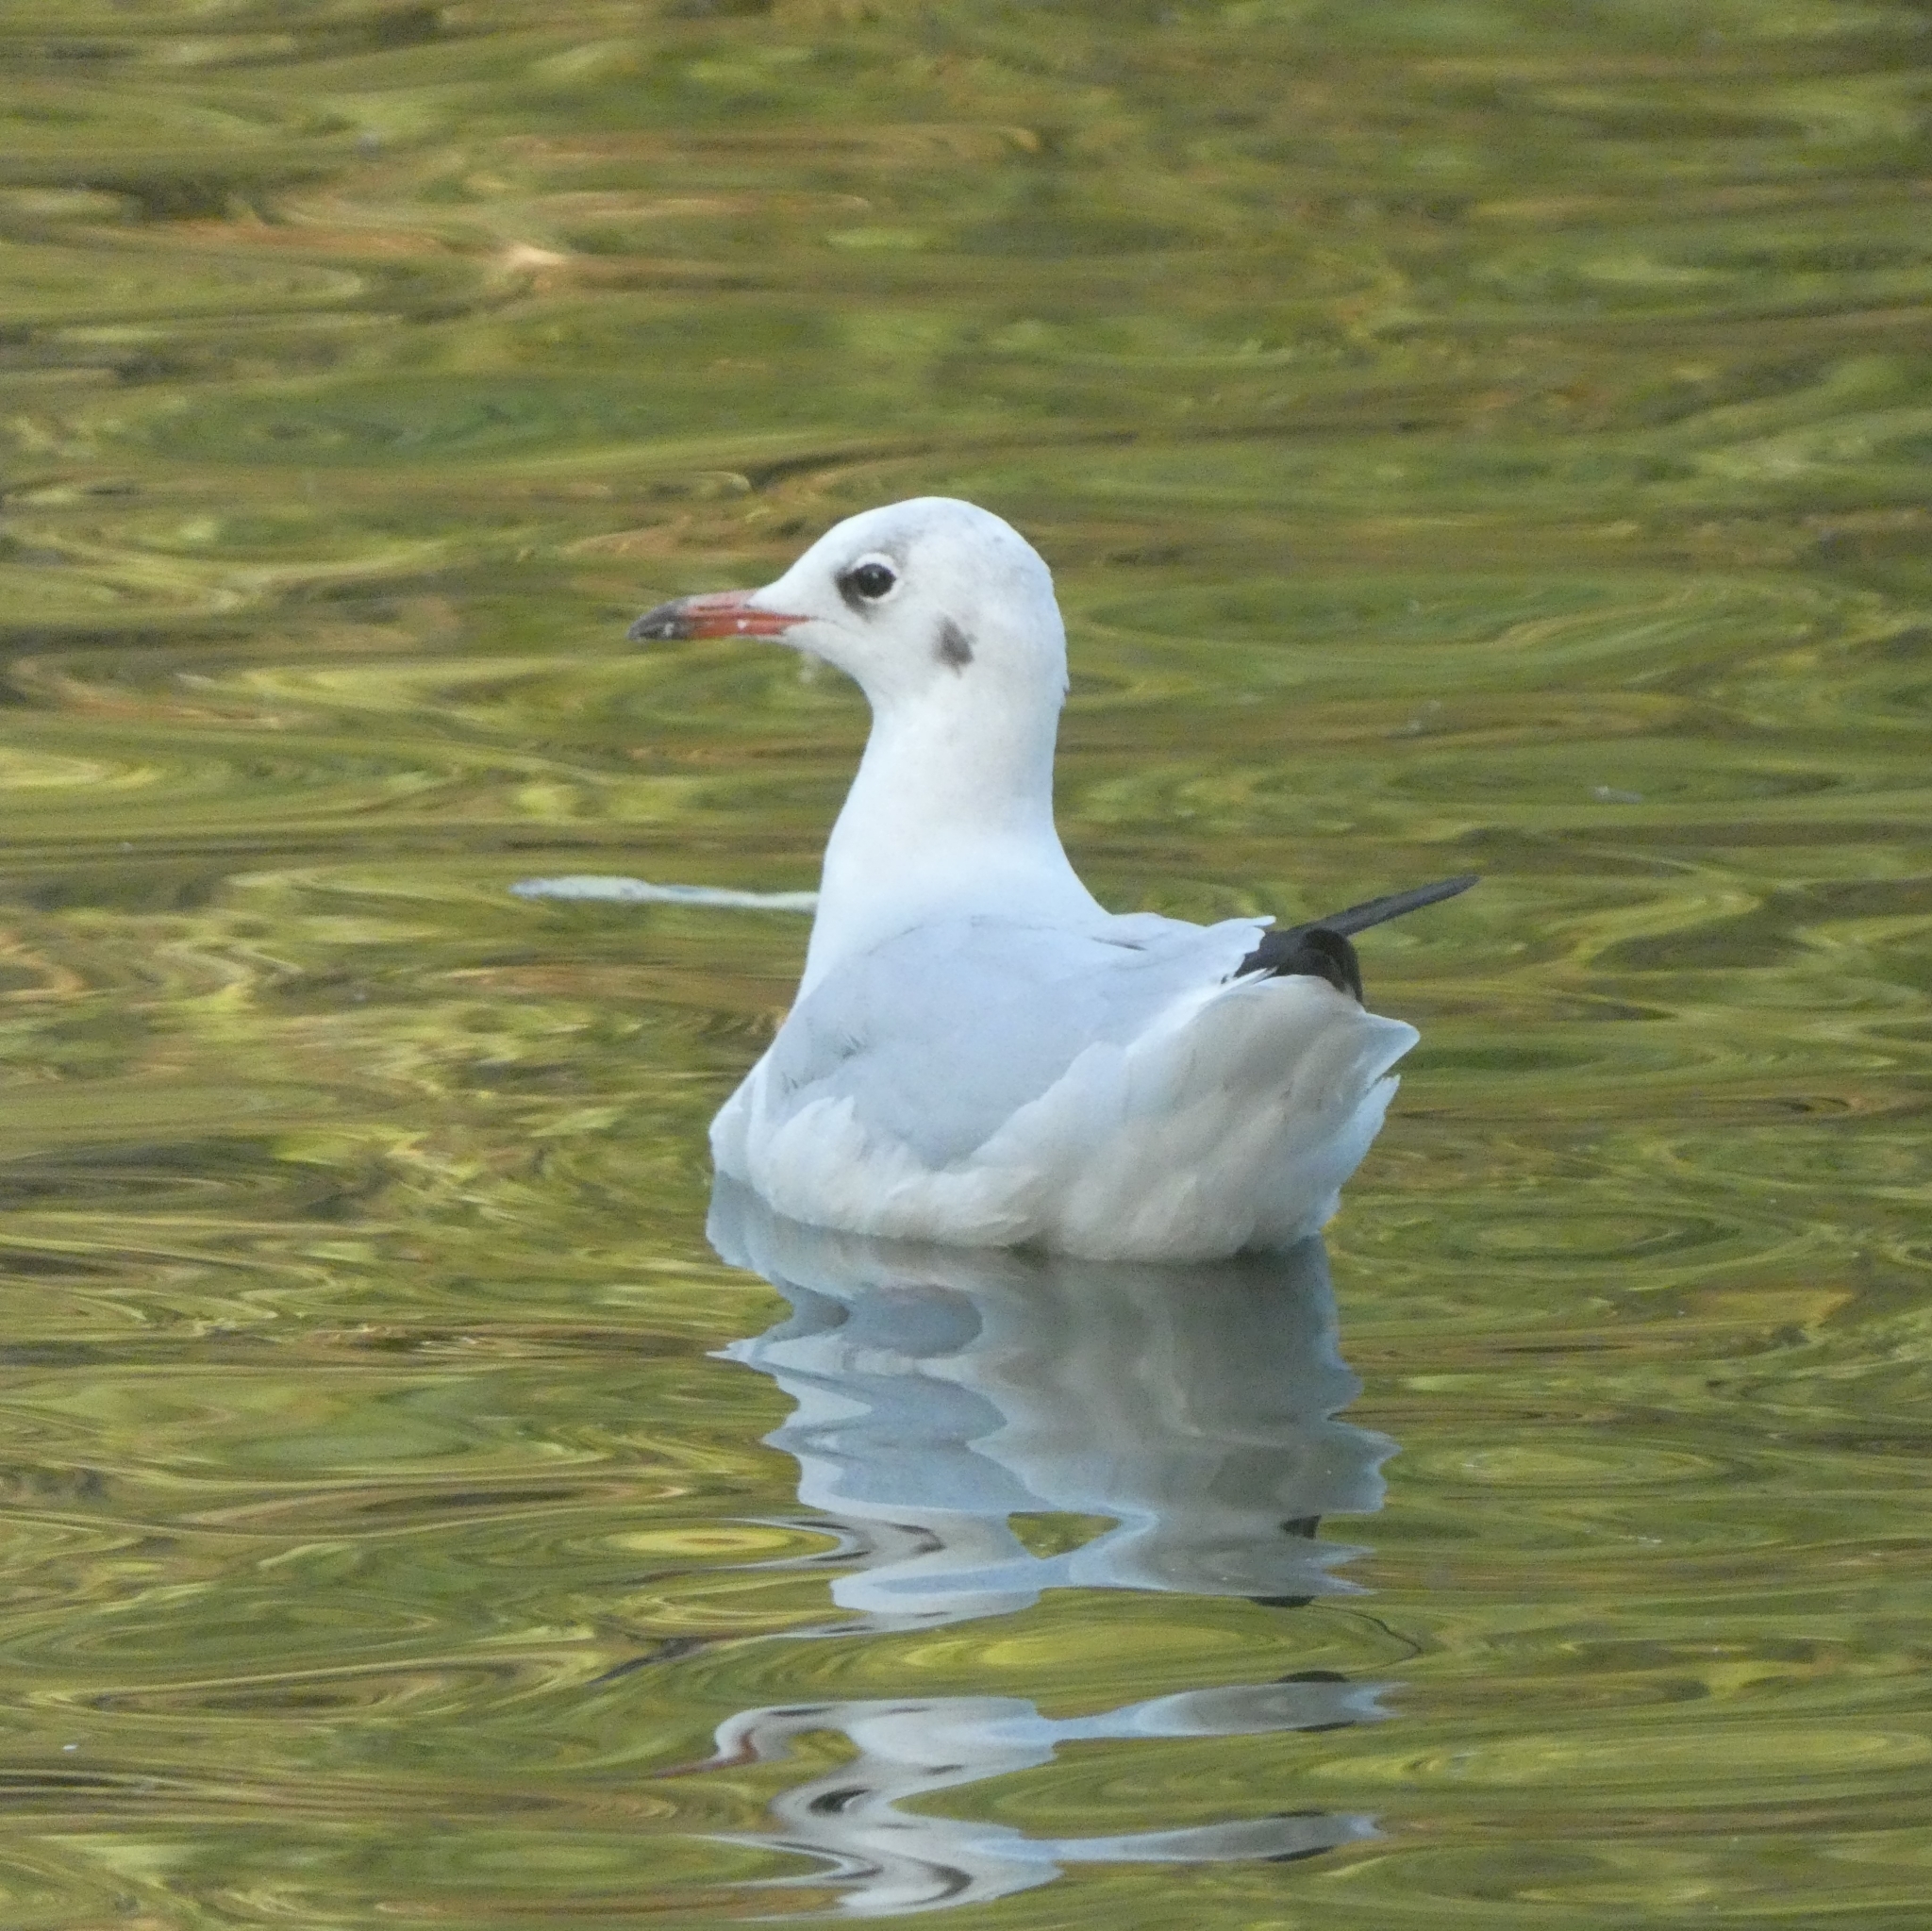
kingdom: Animalia
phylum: Chordata
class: Aves
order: Charadriiformes
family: Laridae
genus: Chroicocephalus
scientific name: Chroicocephalus ridibundus
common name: Black-headed gull
